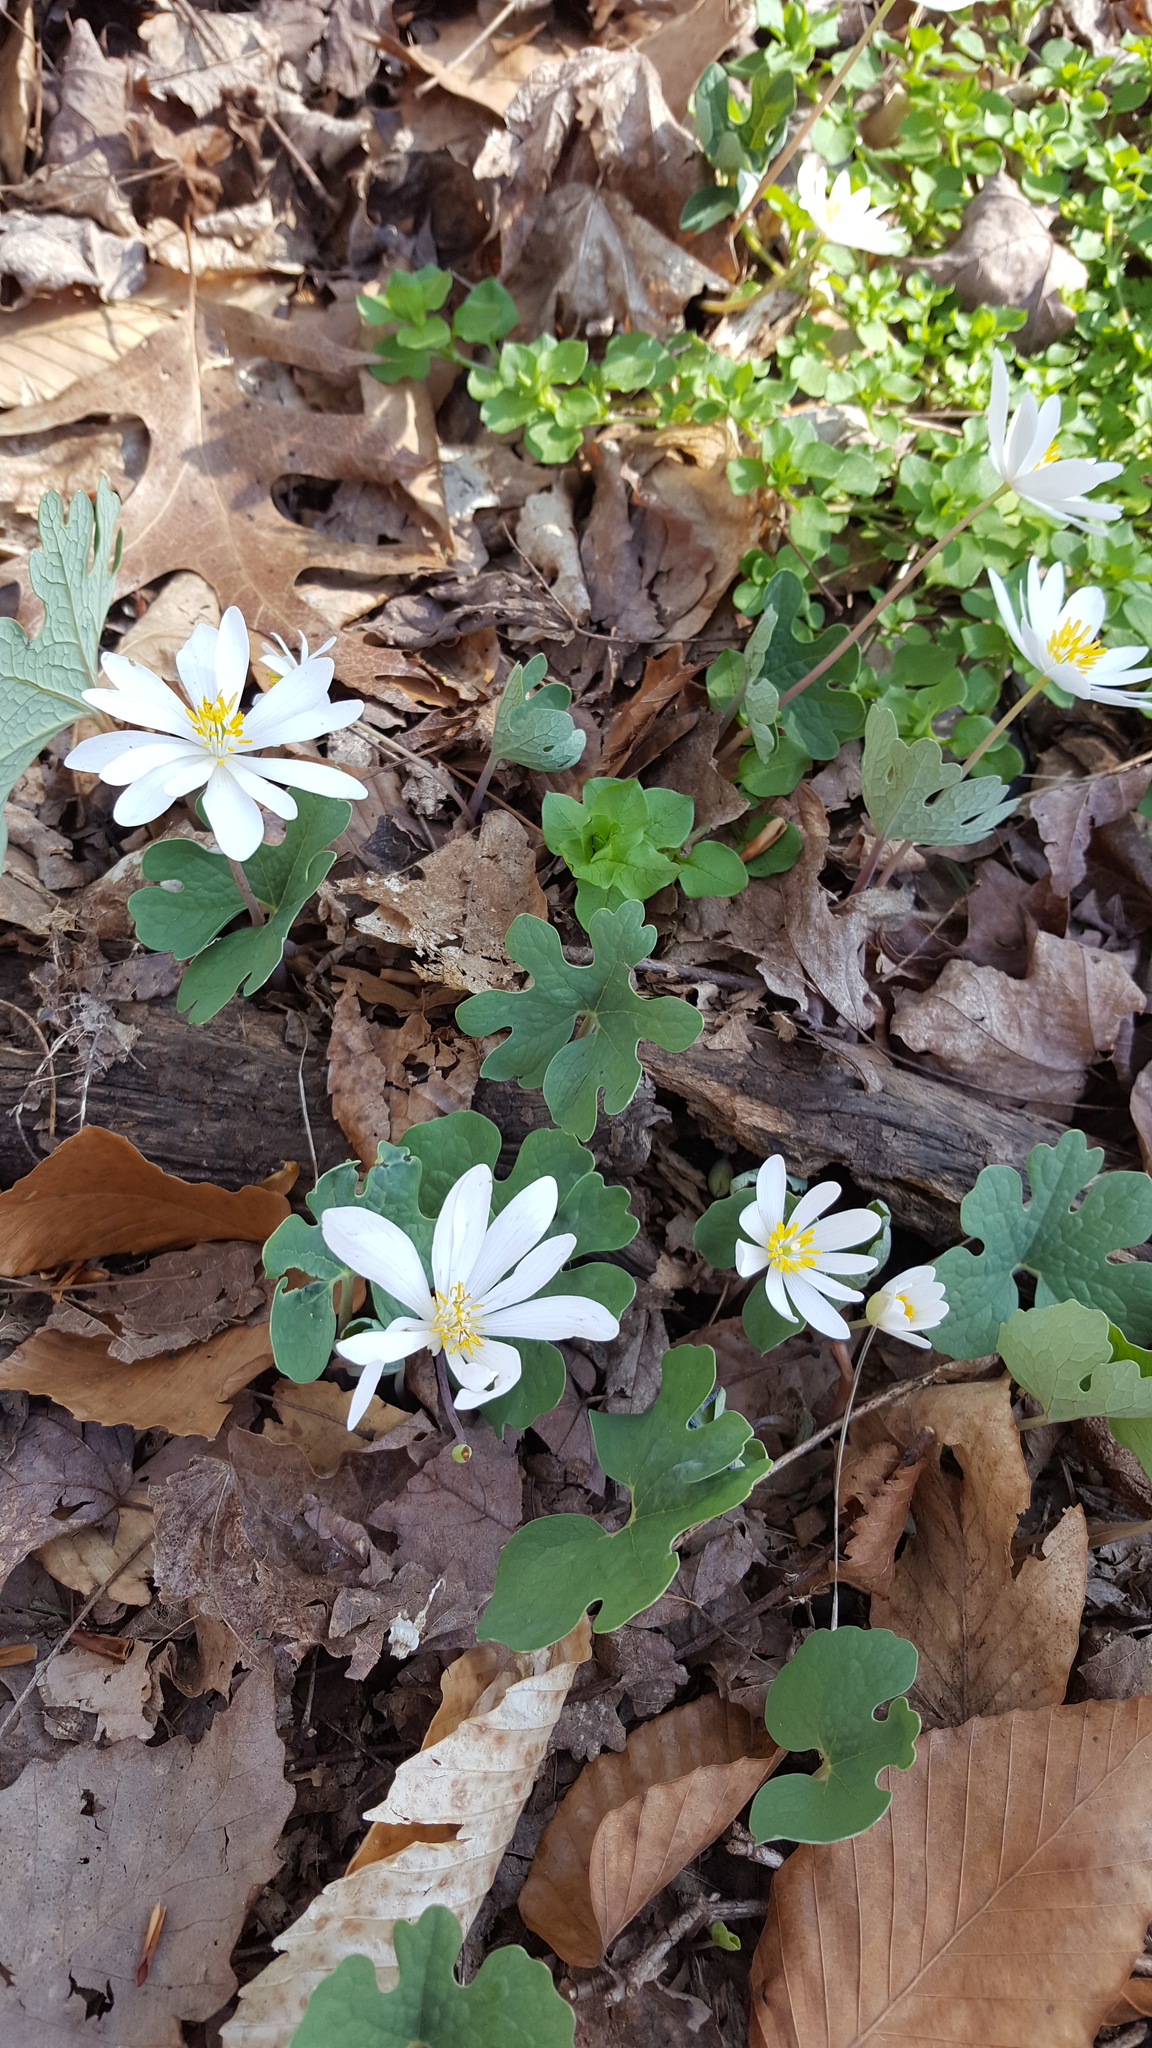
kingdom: Plantae
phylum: Tracheophyta
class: Magnoliopsida
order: Ranunculales
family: Papaveraceae
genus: Sanguinaria
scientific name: Sanguinaria canadensis
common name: Bloodroot
